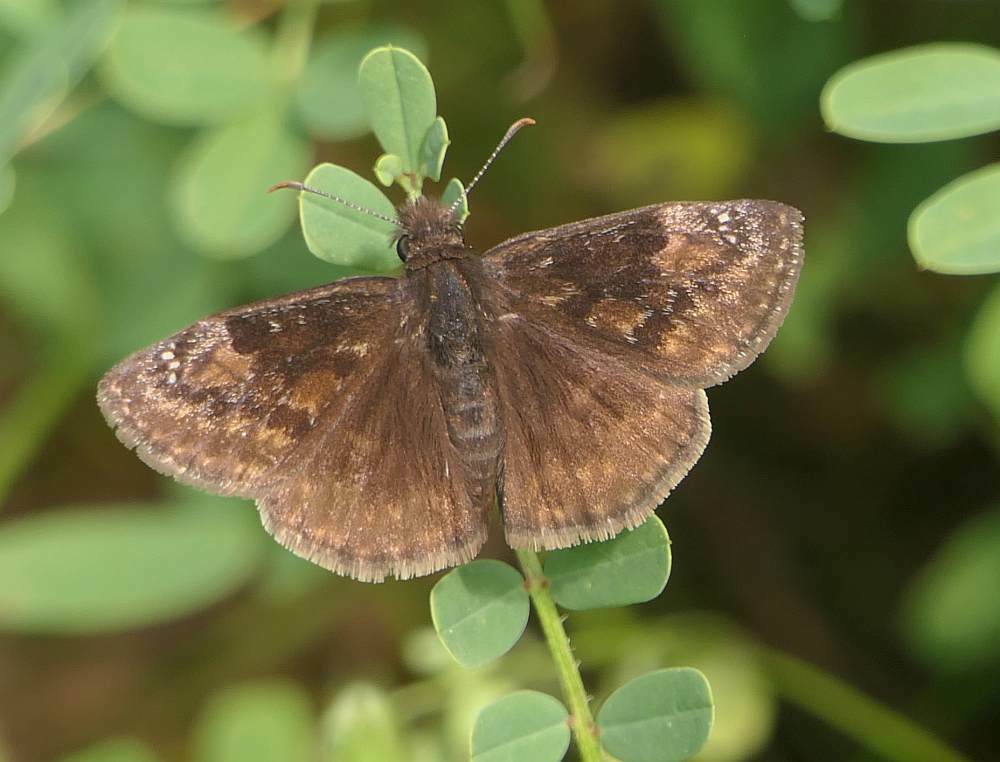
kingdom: Animalia
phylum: Arthropoda
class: Insecta
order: Lepidoptera
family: Hesperiidae
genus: Erynnis
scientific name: Erynnis baptisiae
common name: Wild indigo duskywing
